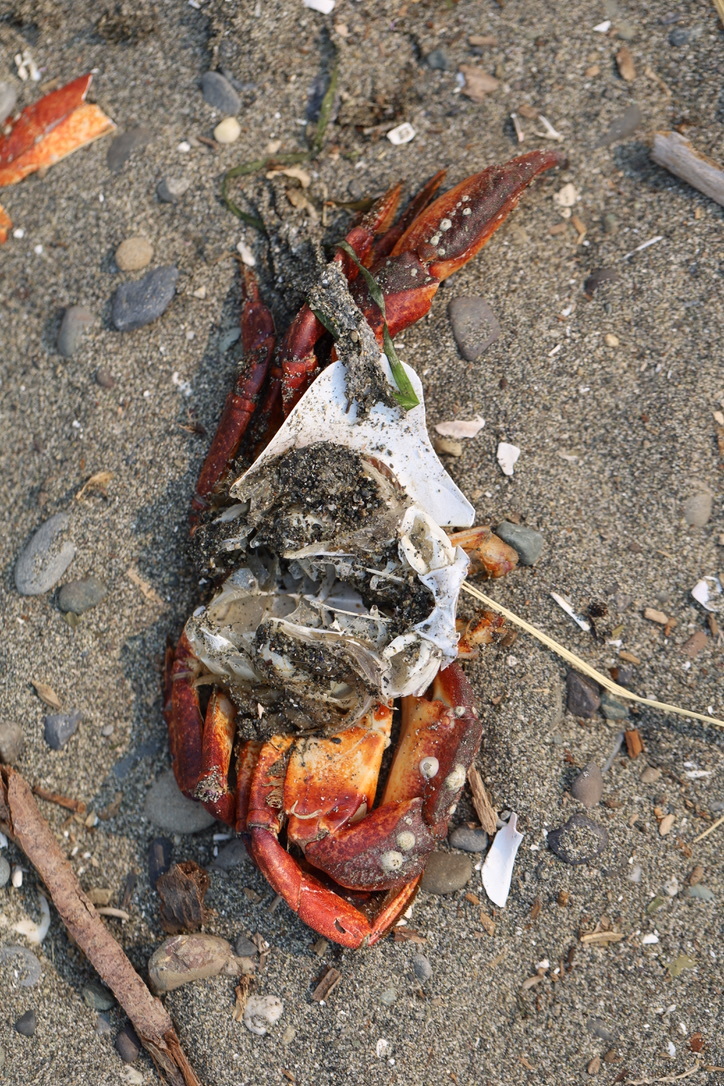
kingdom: Animalia
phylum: Arthropoda
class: Malacostraca
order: Decapoda
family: Cancridae
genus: Cancer
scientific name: Cancer productus
